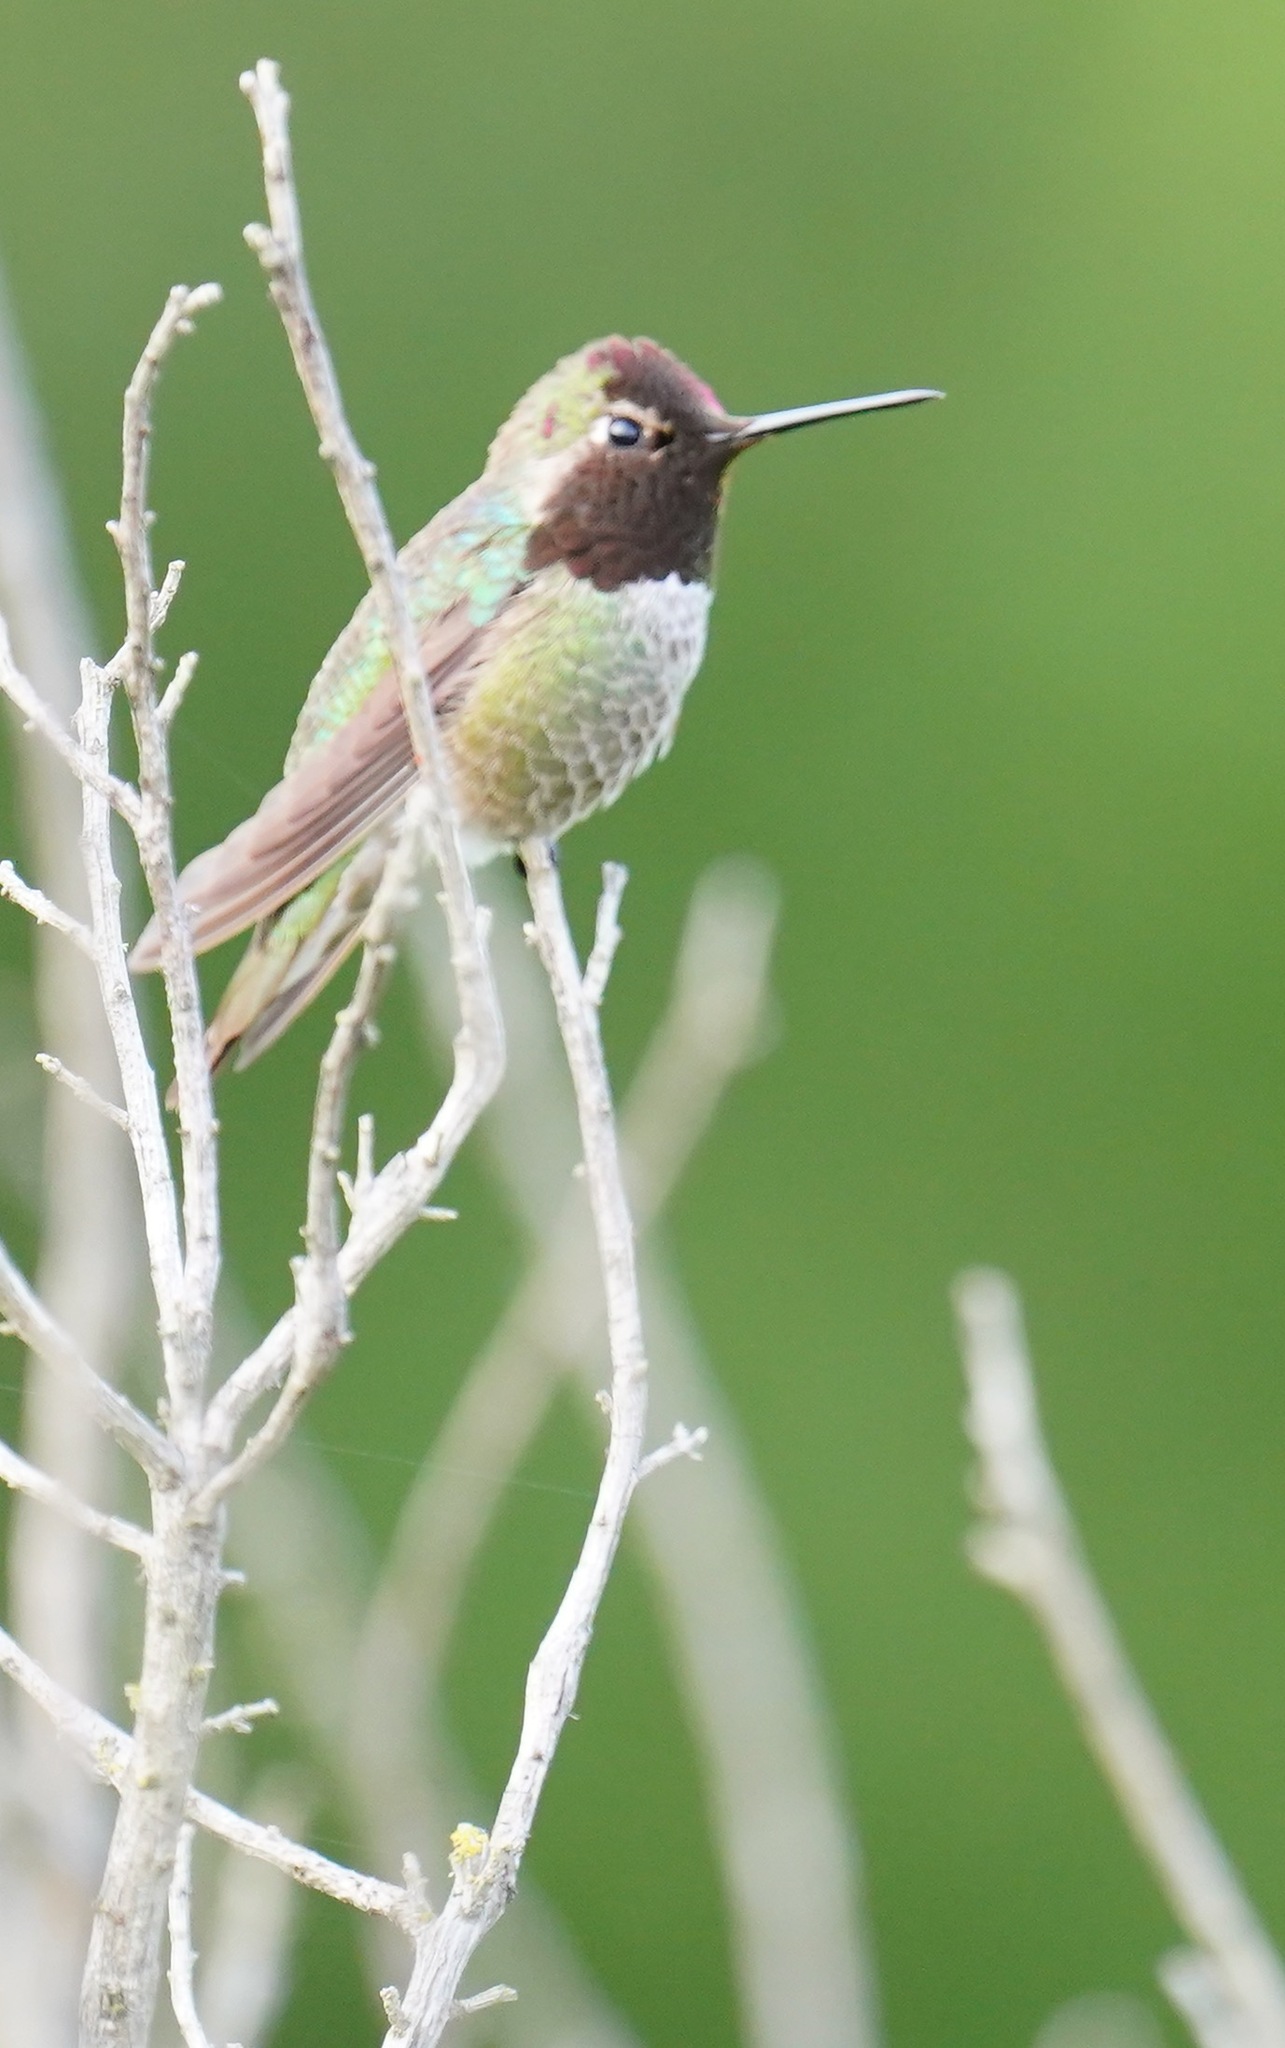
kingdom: Animalia
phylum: Chordata
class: Aves
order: Apodiformes
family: Trochilidae
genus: Calypte
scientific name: Calypte anna
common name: Anna's hummingbird
